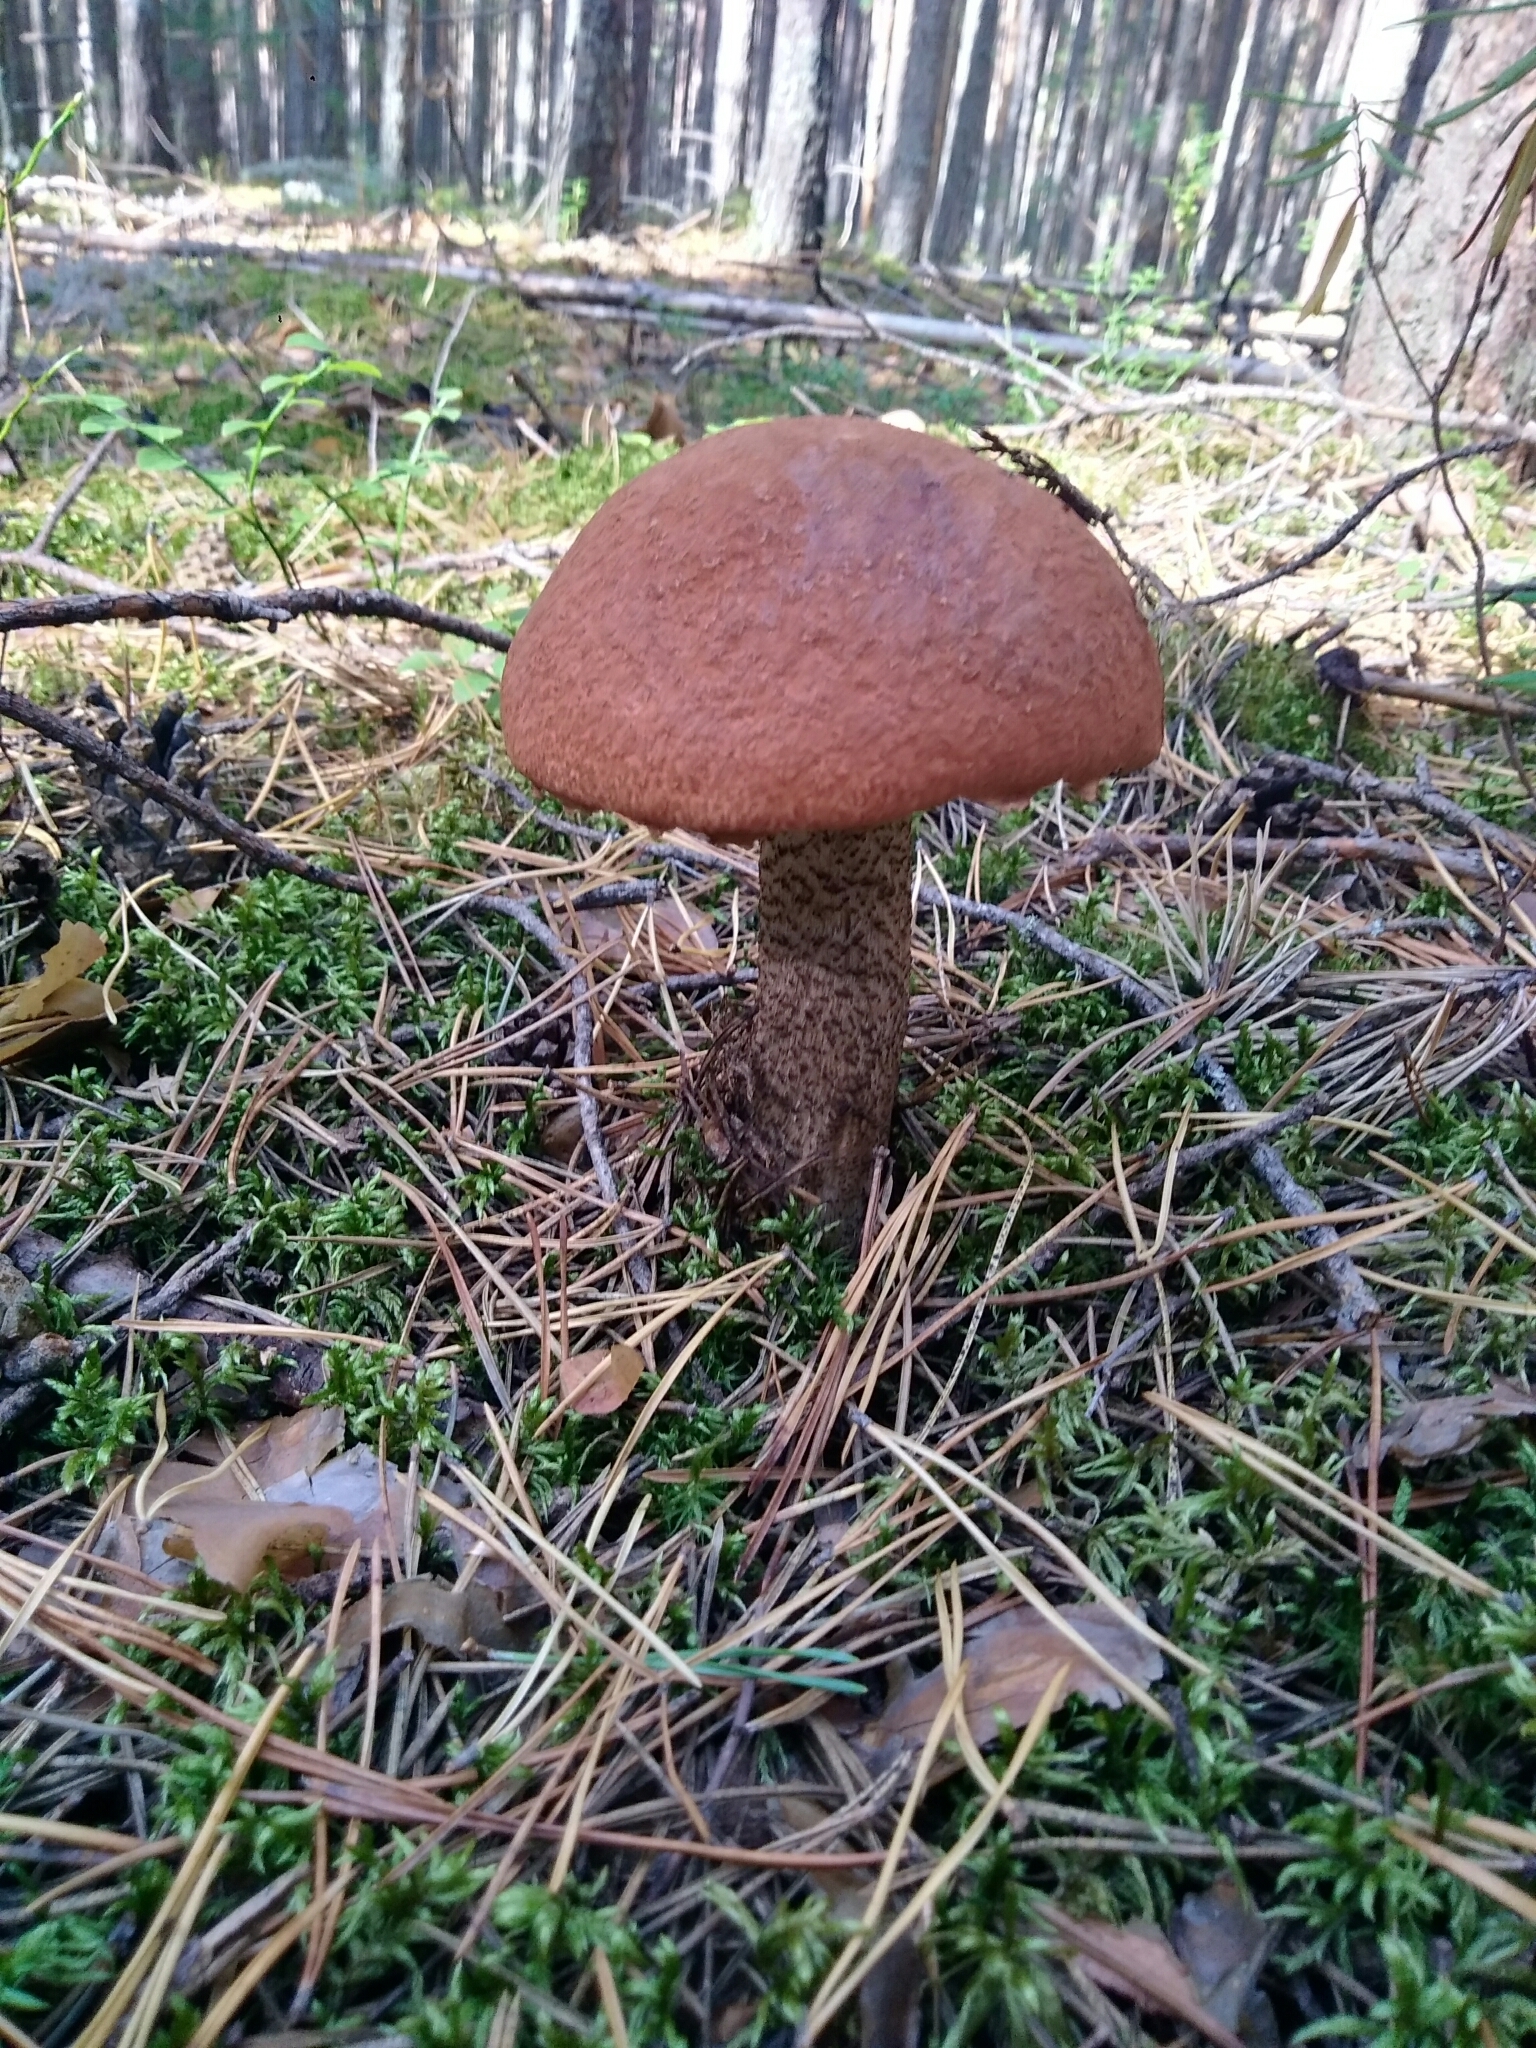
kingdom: Fungi
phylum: Basidiomycota
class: Agaricomycetes
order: Boletales
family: Boletaceae
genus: Leccinum
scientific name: Leccinum aurantiacum
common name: Orange bolete
